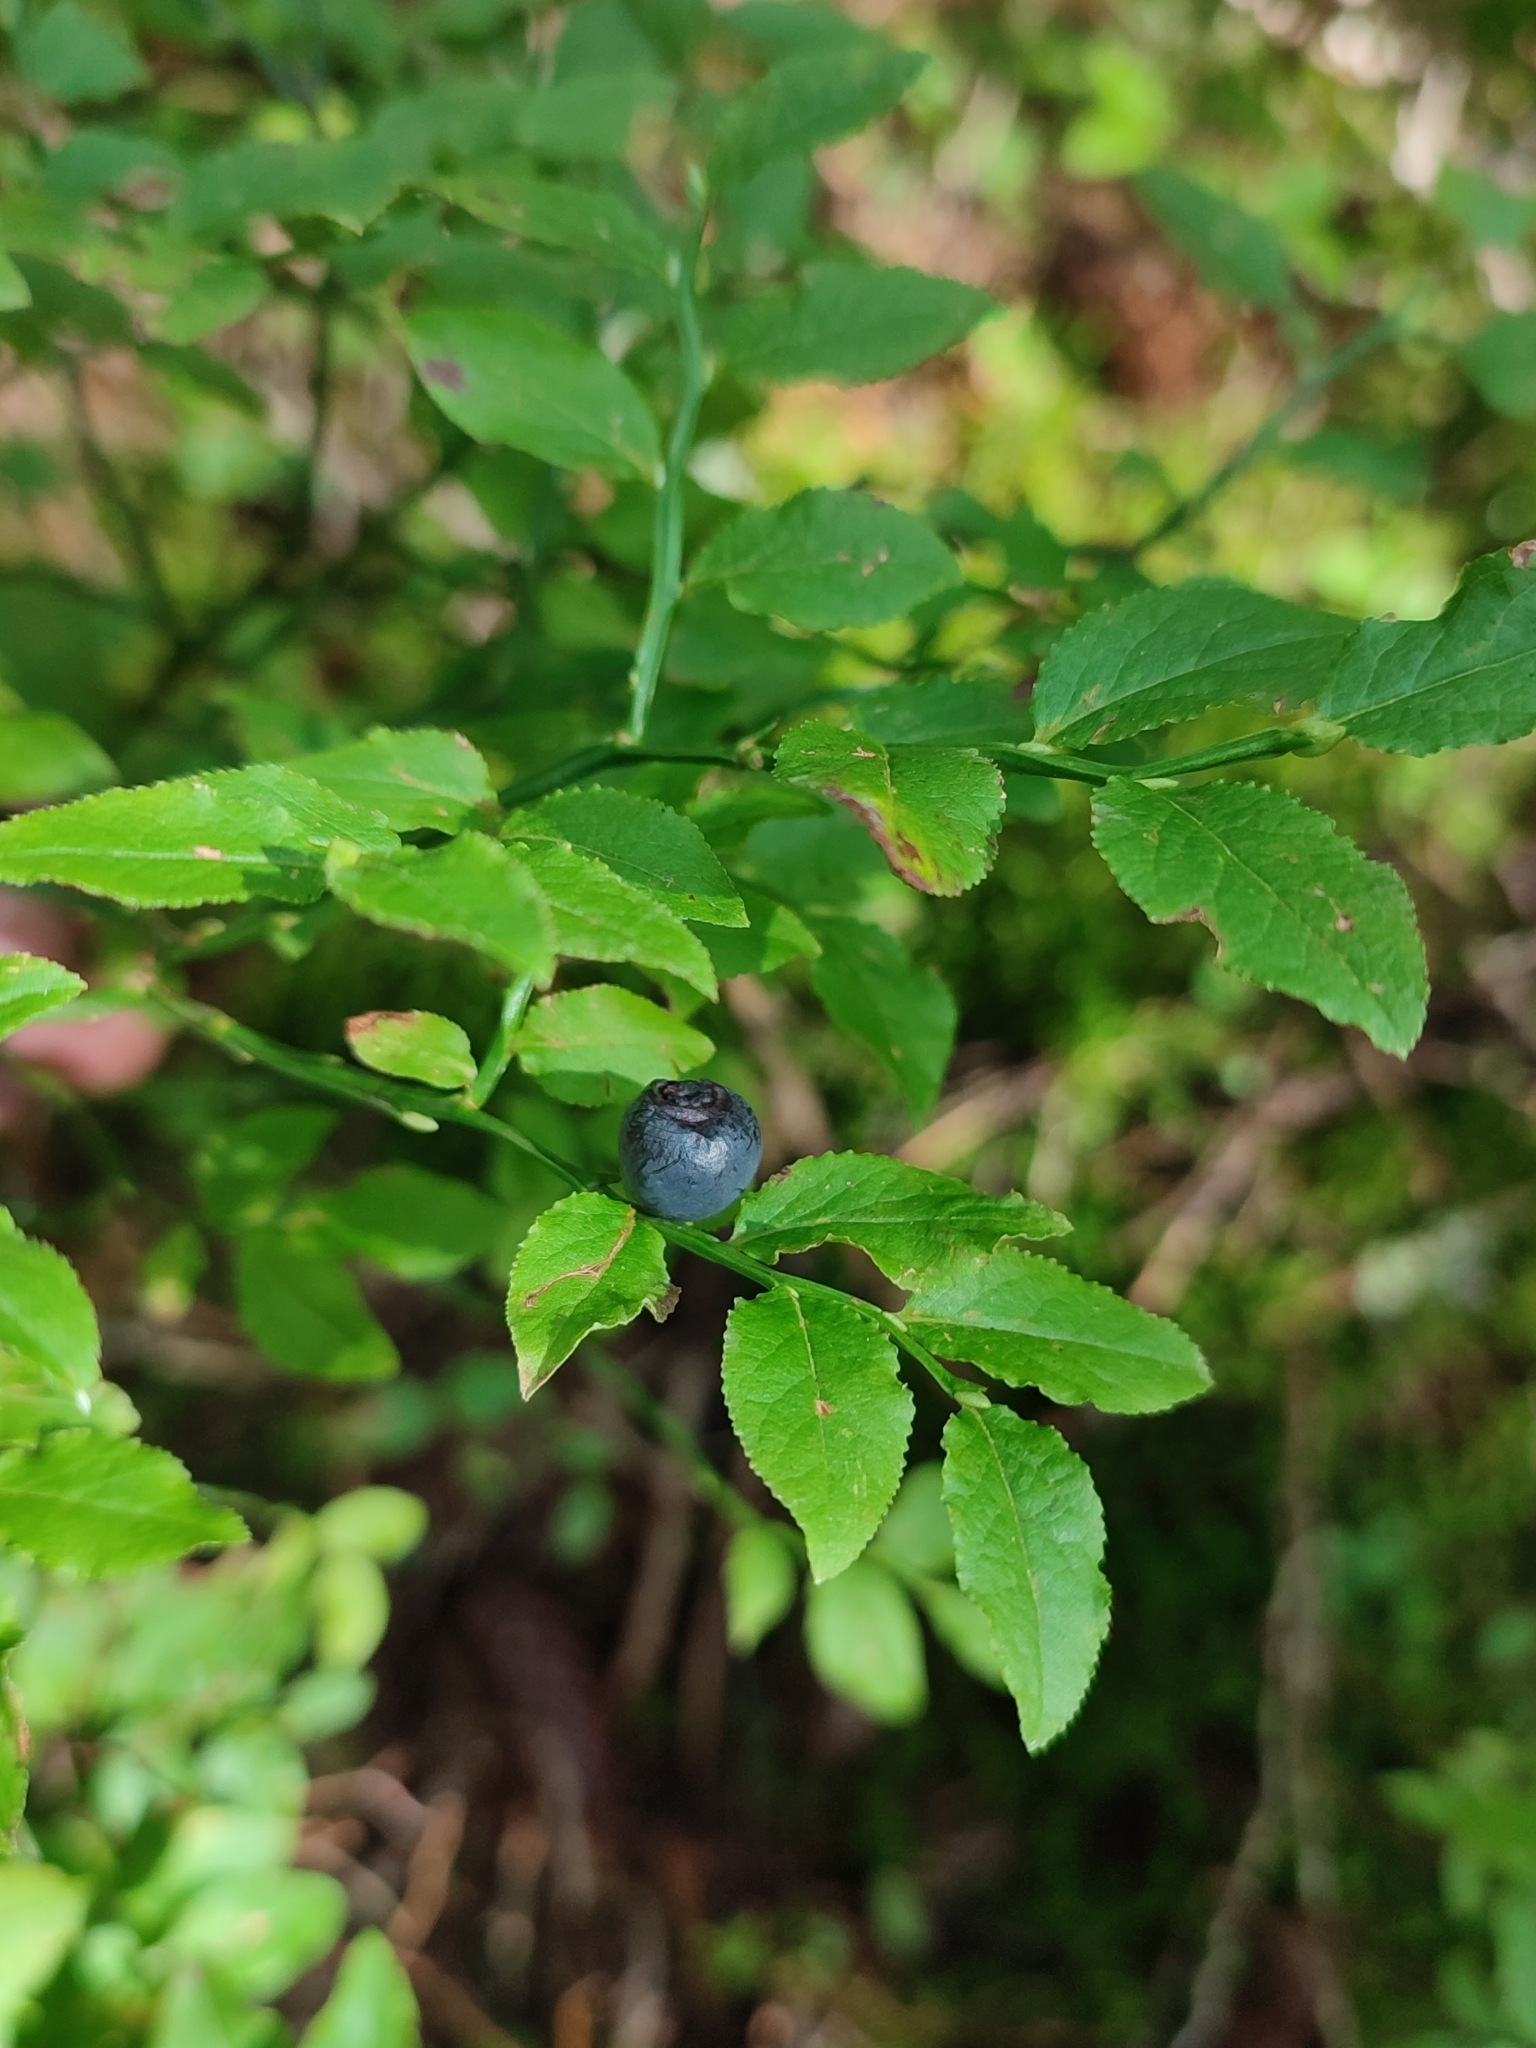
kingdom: Plantae
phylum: Tracheophyta
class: Magnoliopsida
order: Ericales
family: Ericaceae
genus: Vaccinium
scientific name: Vaccinium myrtillus
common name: Bilberry
